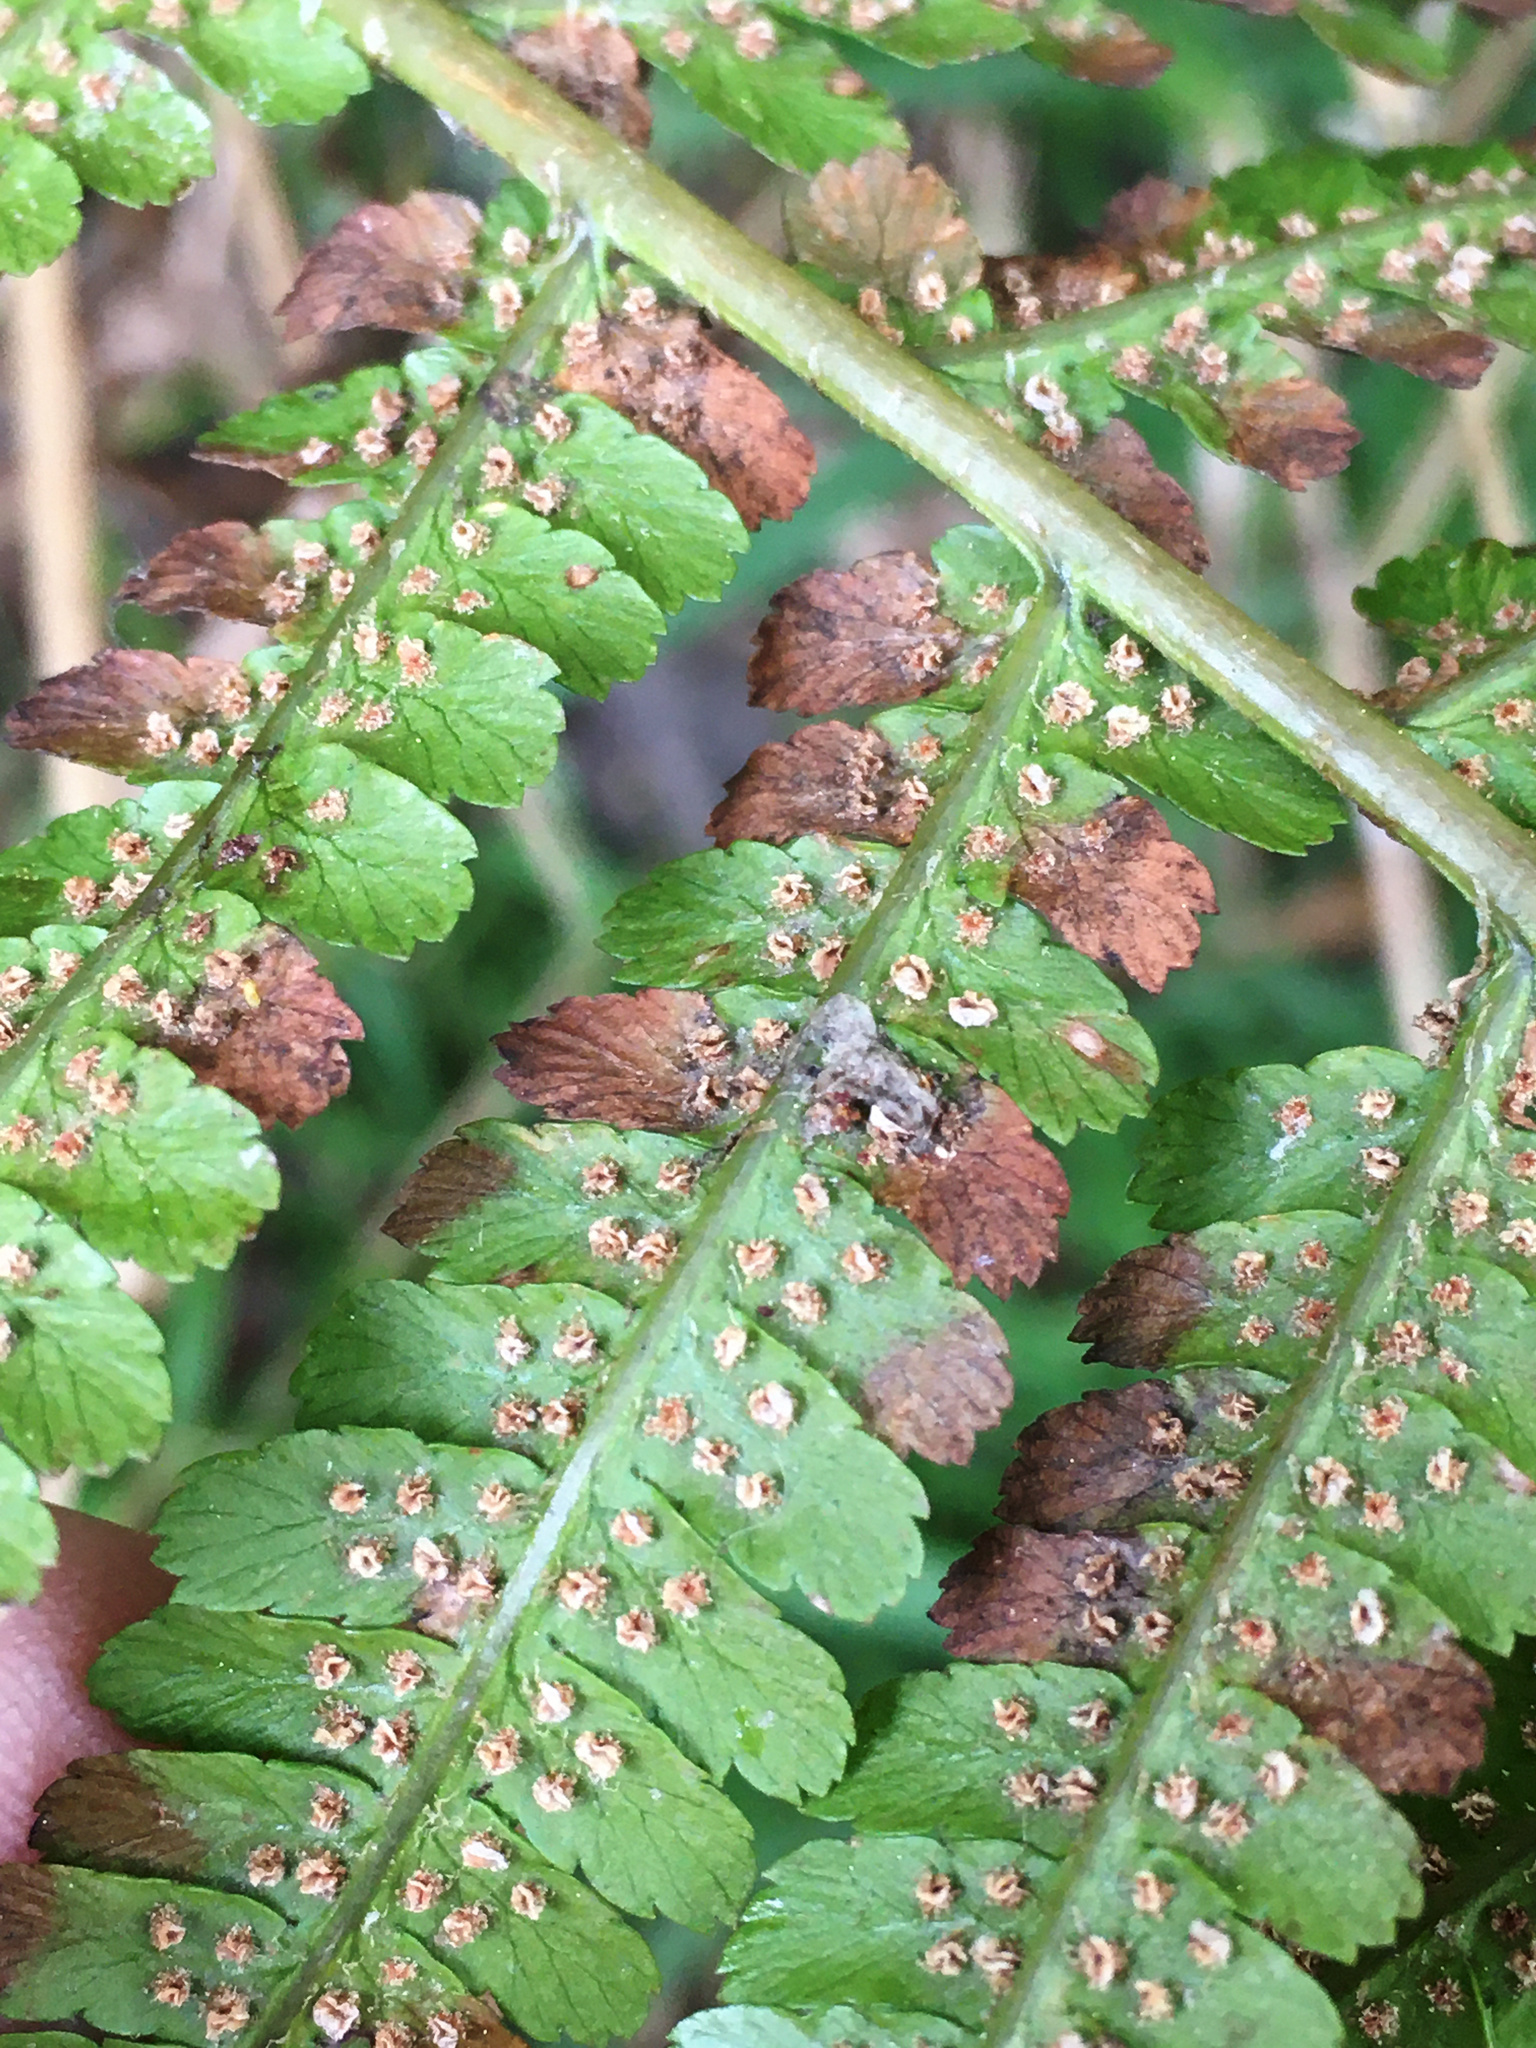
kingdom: Plantae
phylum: Tracheophyta
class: Polypodiopsida
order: Polypodiales
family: Dryopteridaceae
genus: Dryopteris
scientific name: Dryopteris filix-mas
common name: Male fern
